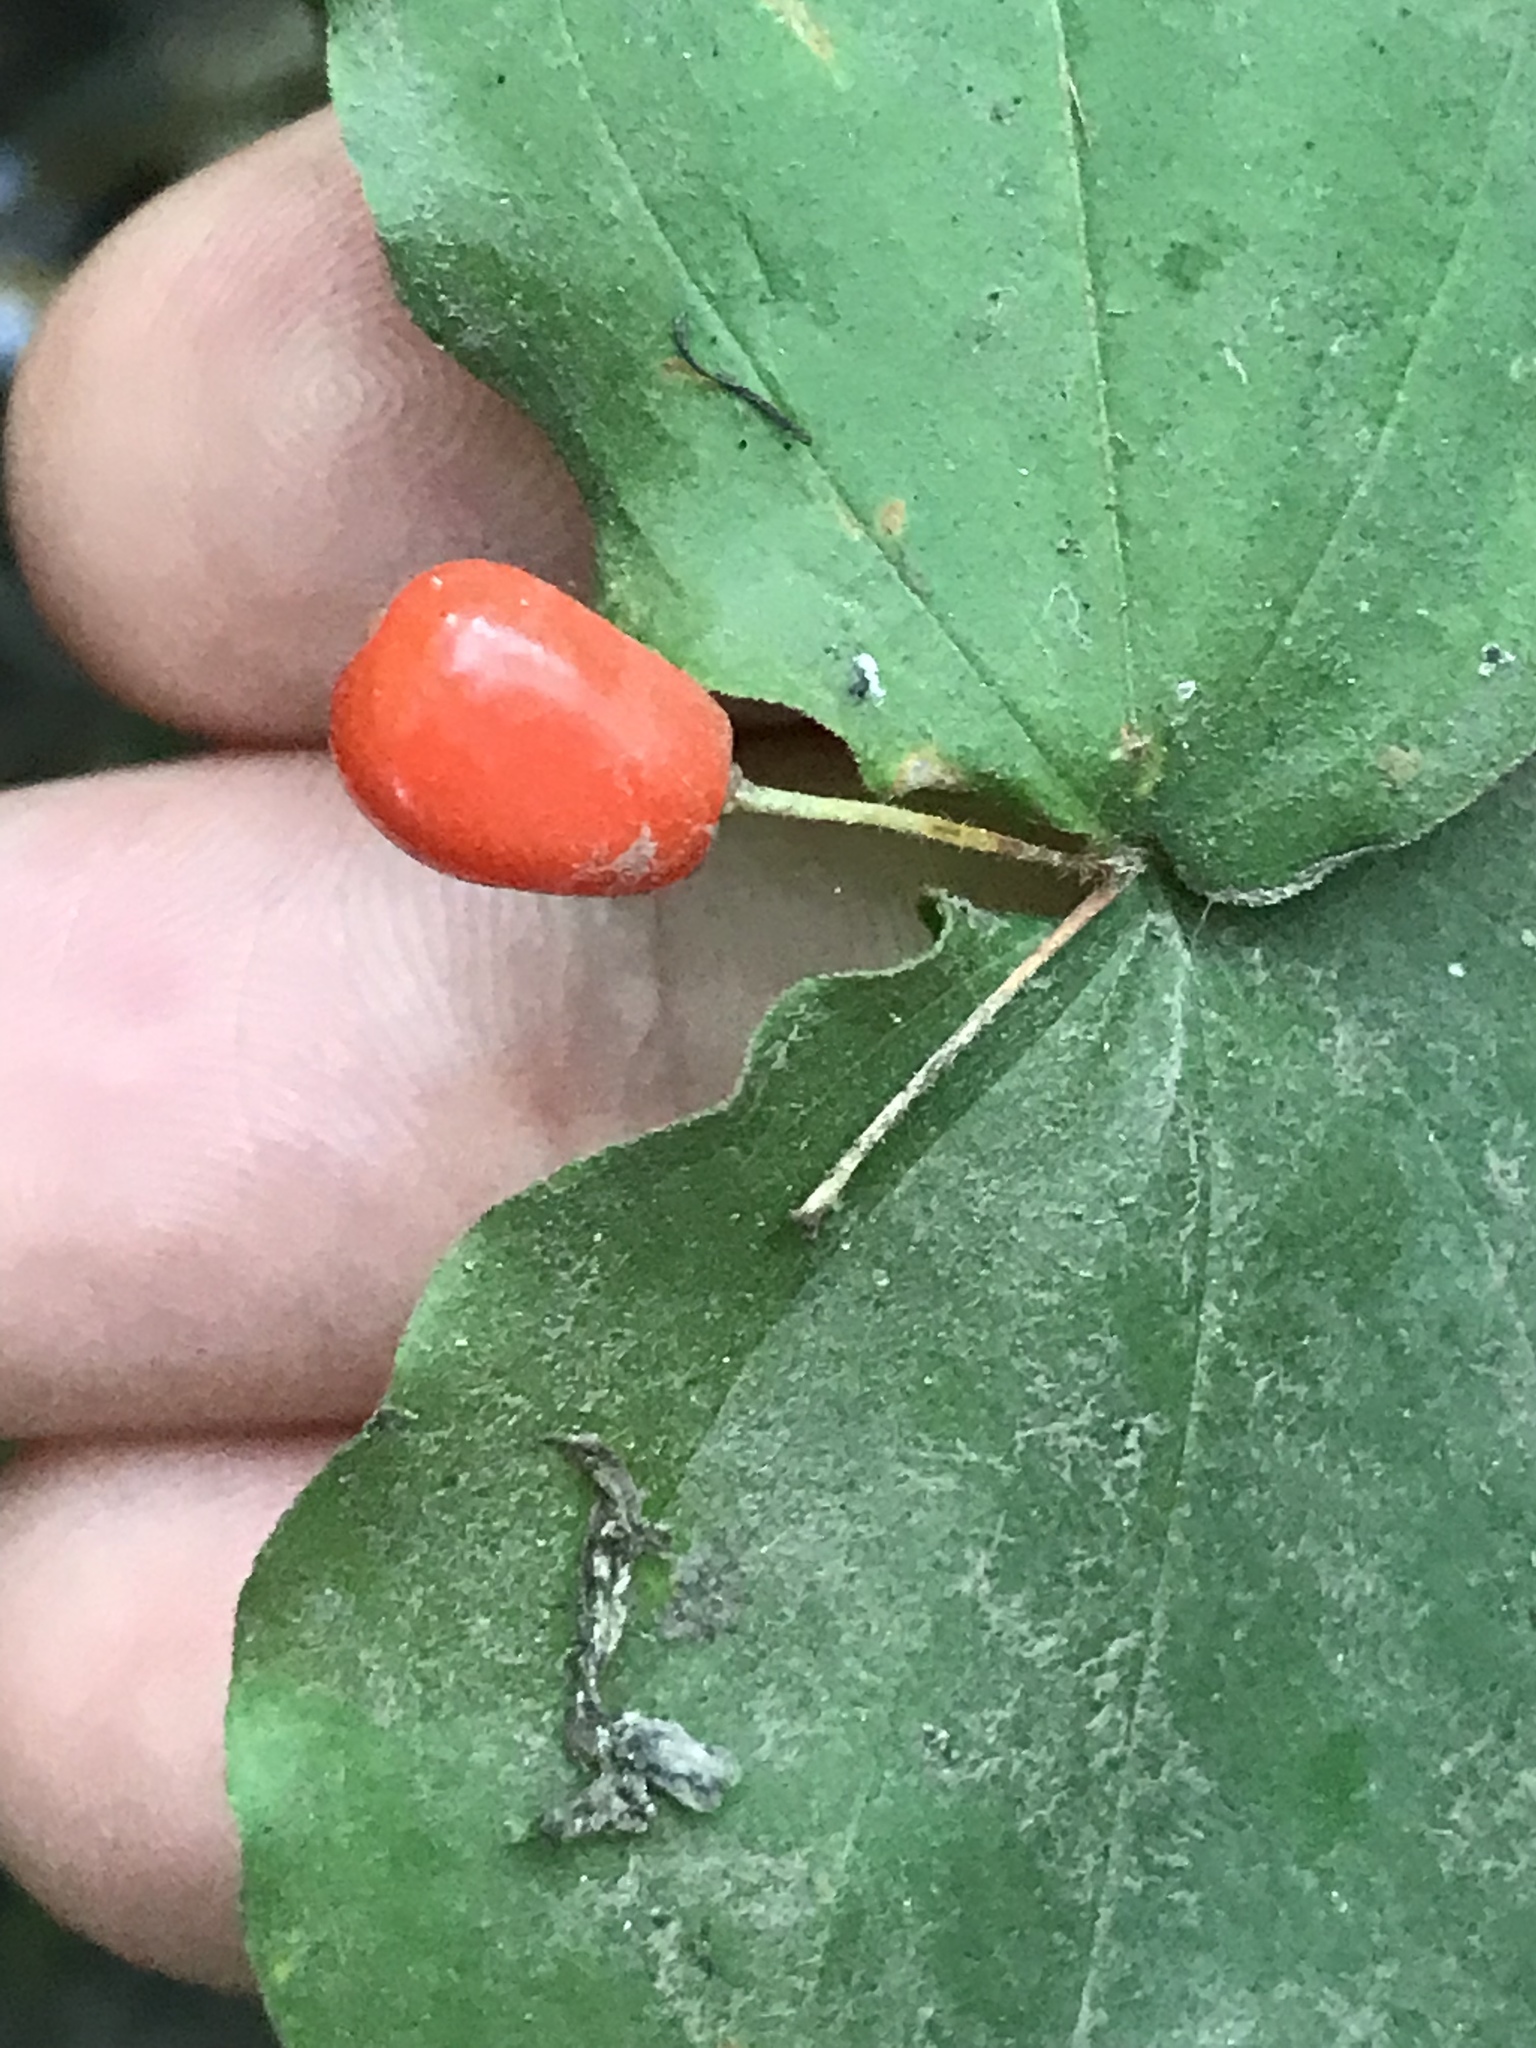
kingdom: Plantae
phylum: Tracheophyta
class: Liliopsida
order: Liliales
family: Liliaceae
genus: Prosartes
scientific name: Prosartes hookeri
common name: Fairy-bells
